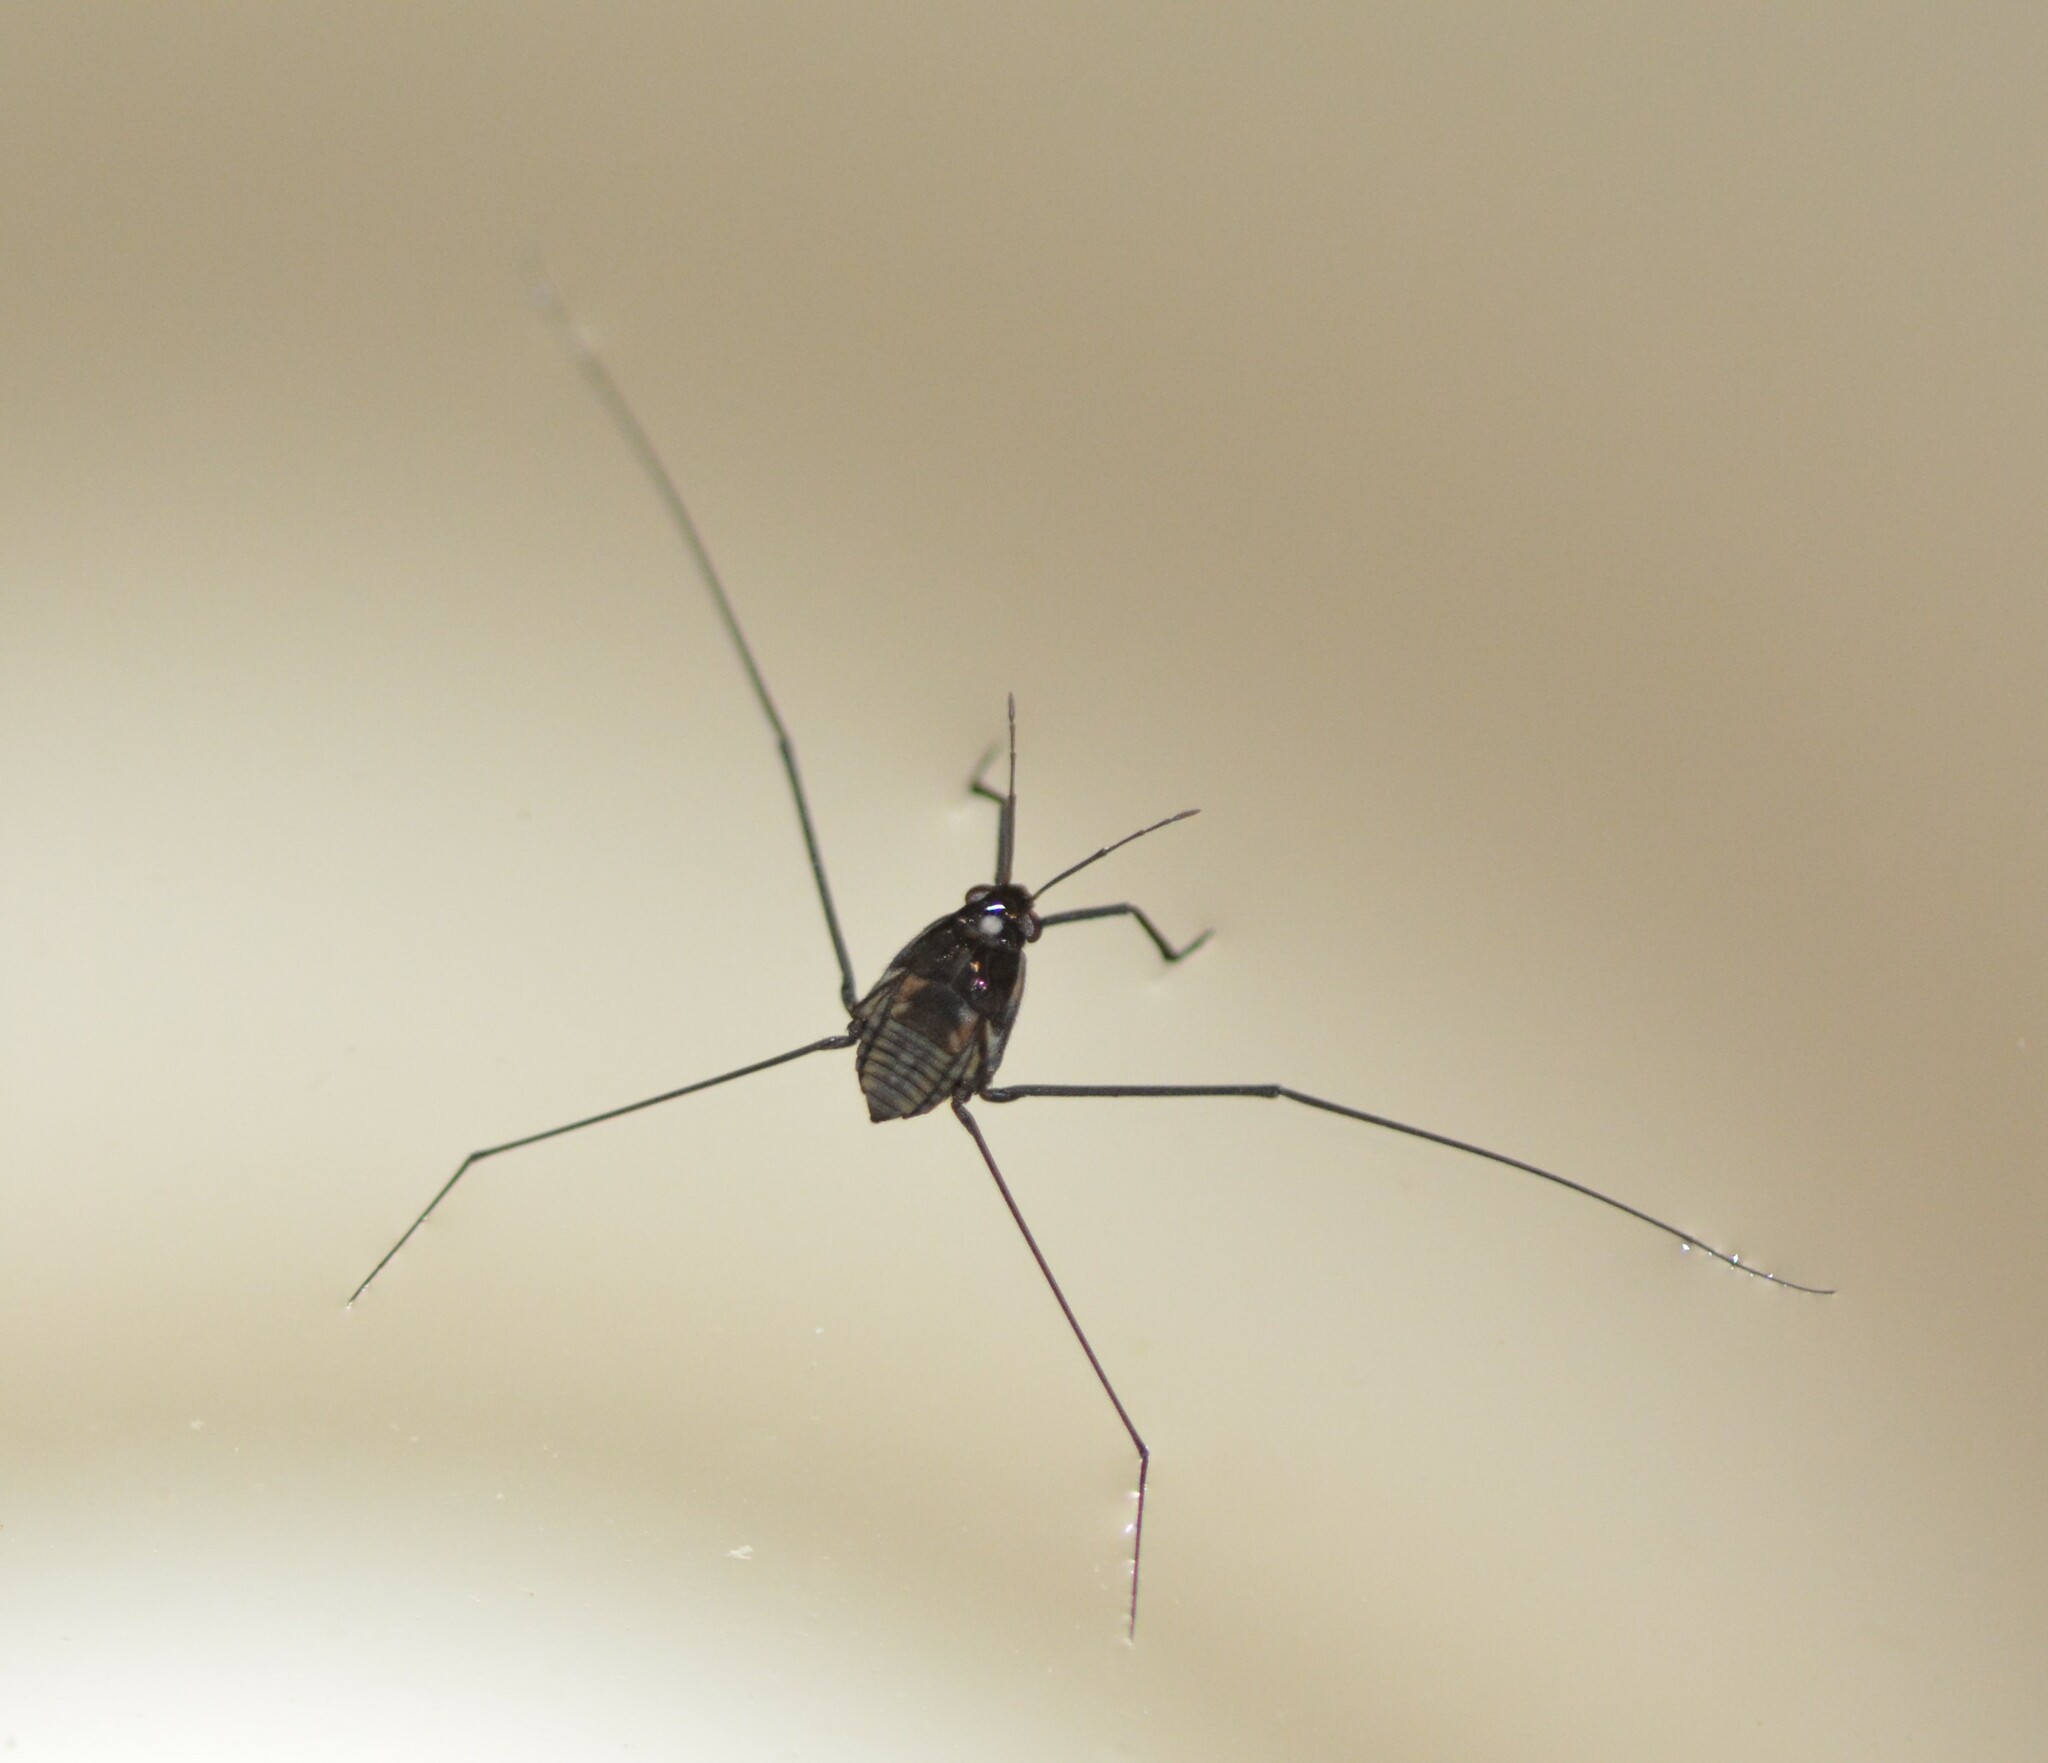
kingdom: Animalia
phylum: Arthropoda
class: Insecta
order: Hemiptera
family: Gerridae
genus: Metrobates
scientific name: Metrobates hesperius
